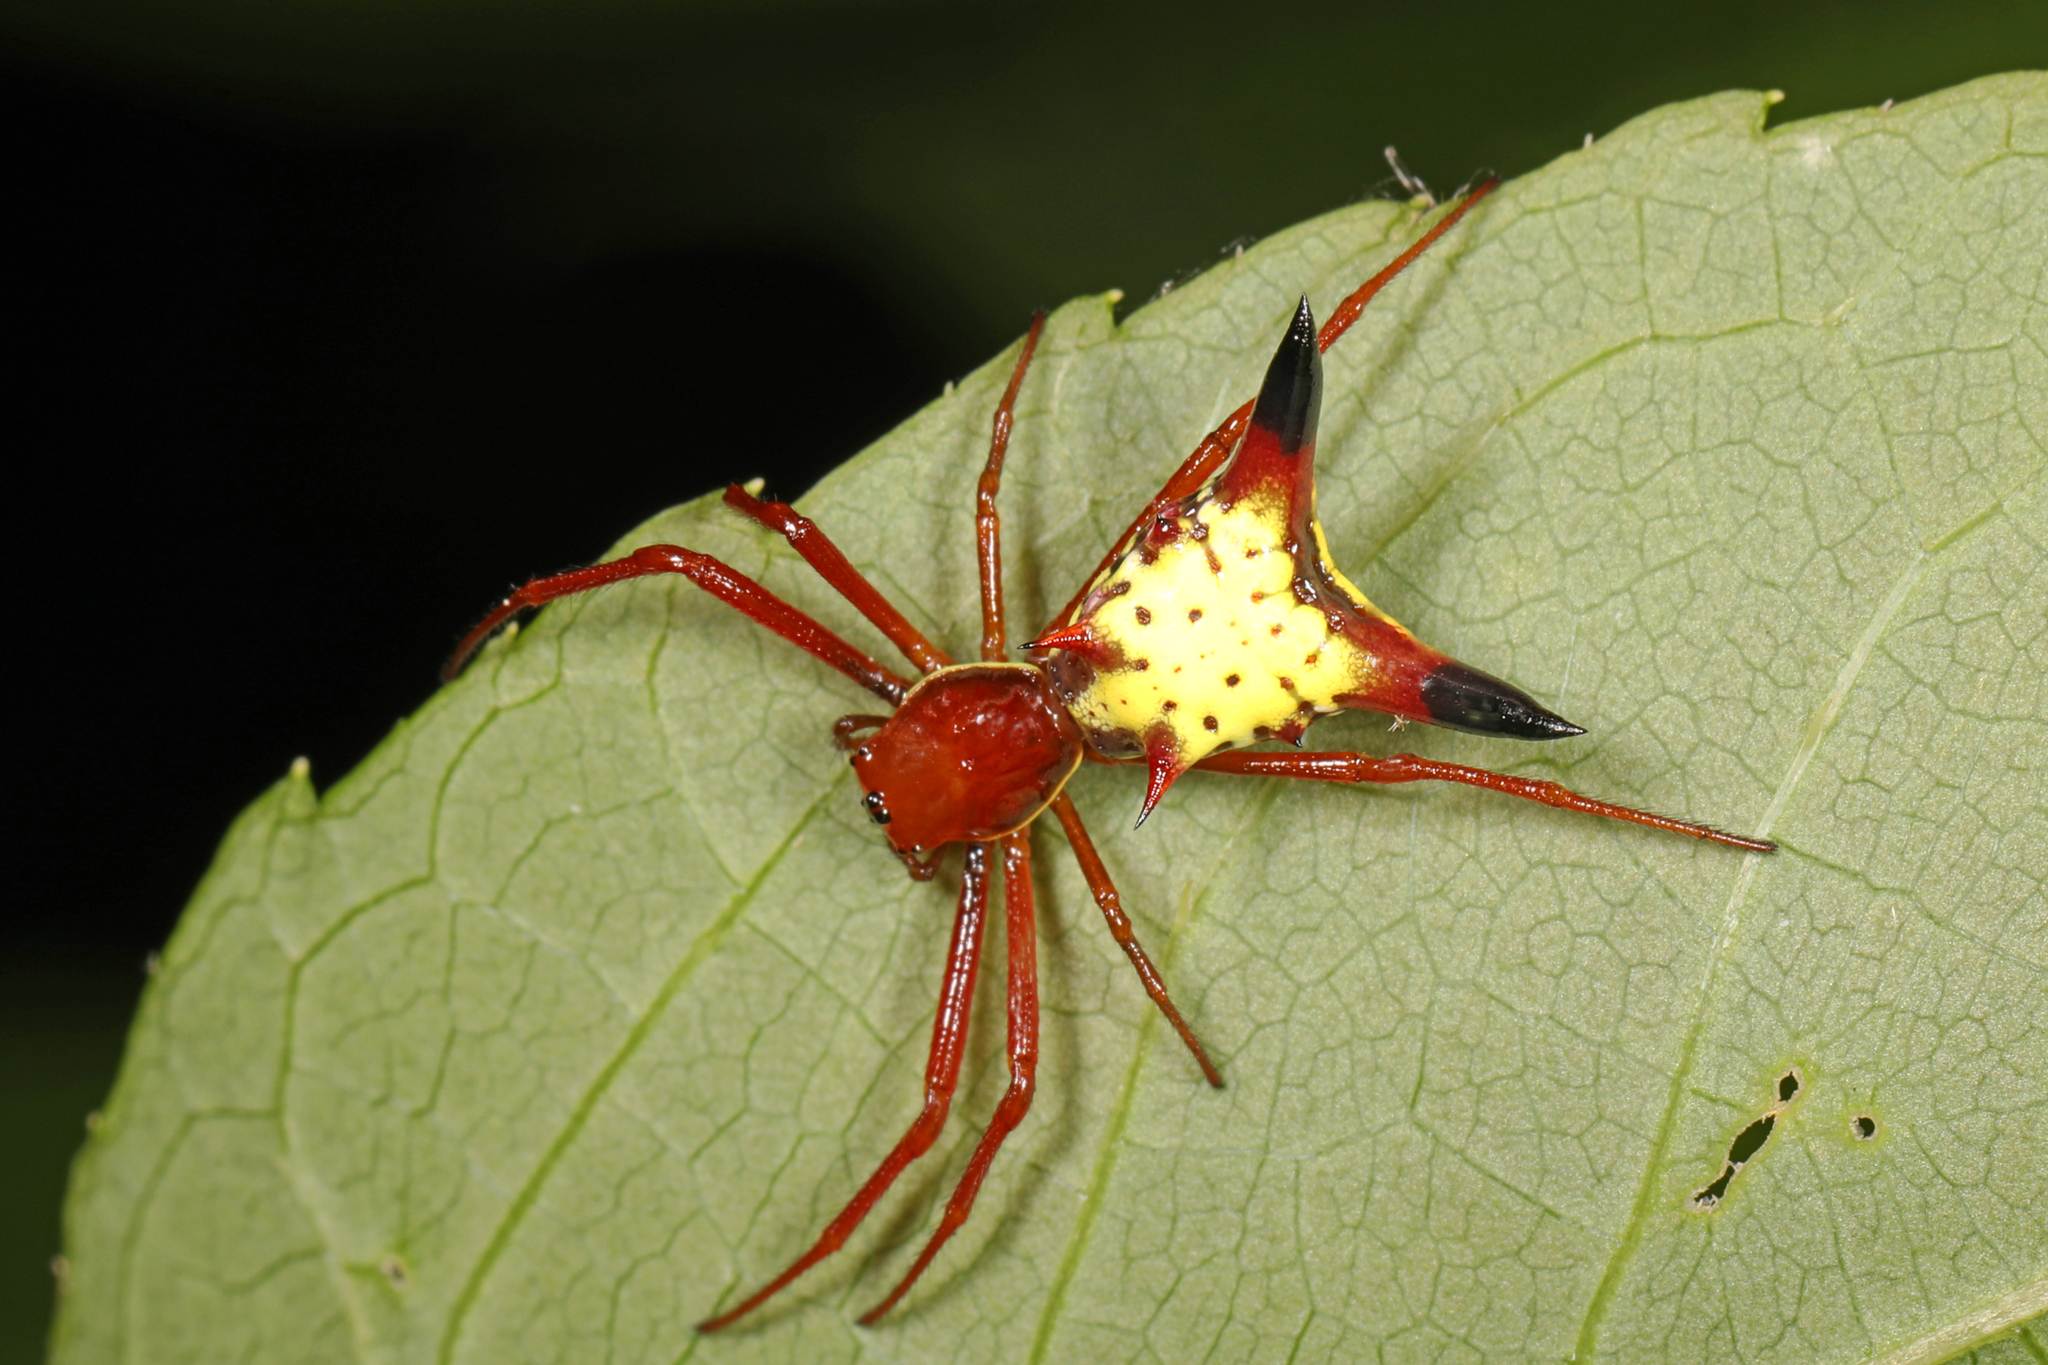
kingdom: Animalia
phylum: Arthropoda
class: Arachnida
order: Araneae
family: Araneidae
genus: Micrathena
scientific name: Micrathena sagittata
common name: Orb weavers
